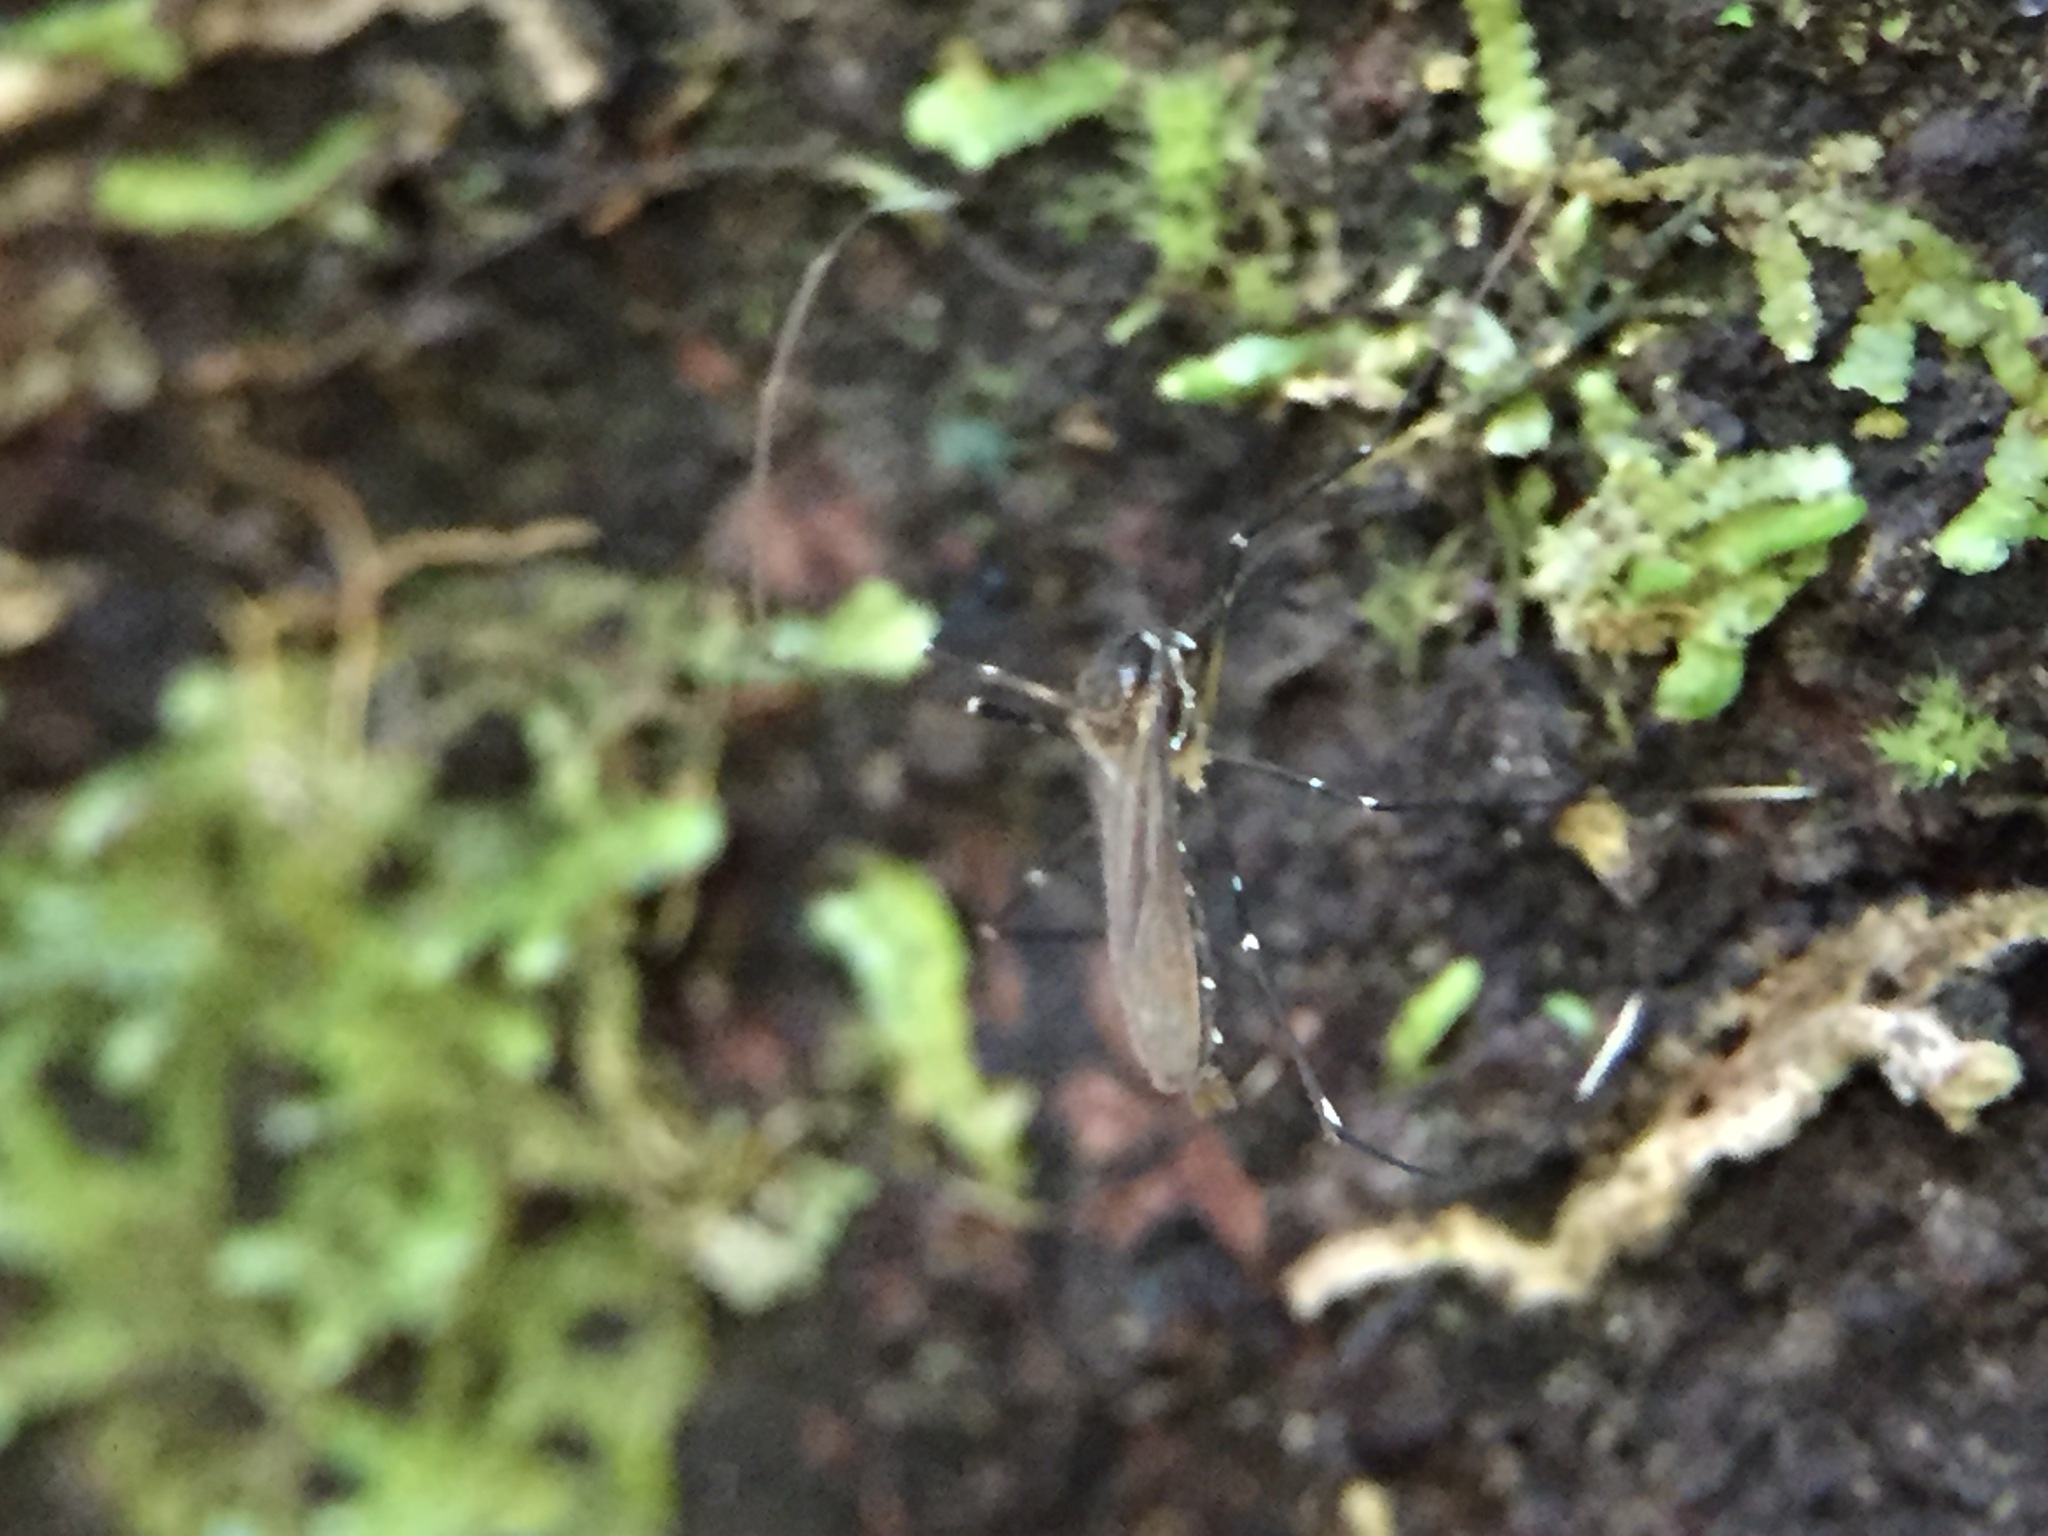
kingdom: Animalia
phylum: Arthropoda
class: Insecta
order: Diptera
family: Culicidae
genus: Maorigoeldia
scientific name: Maorigoeldia argyropus
